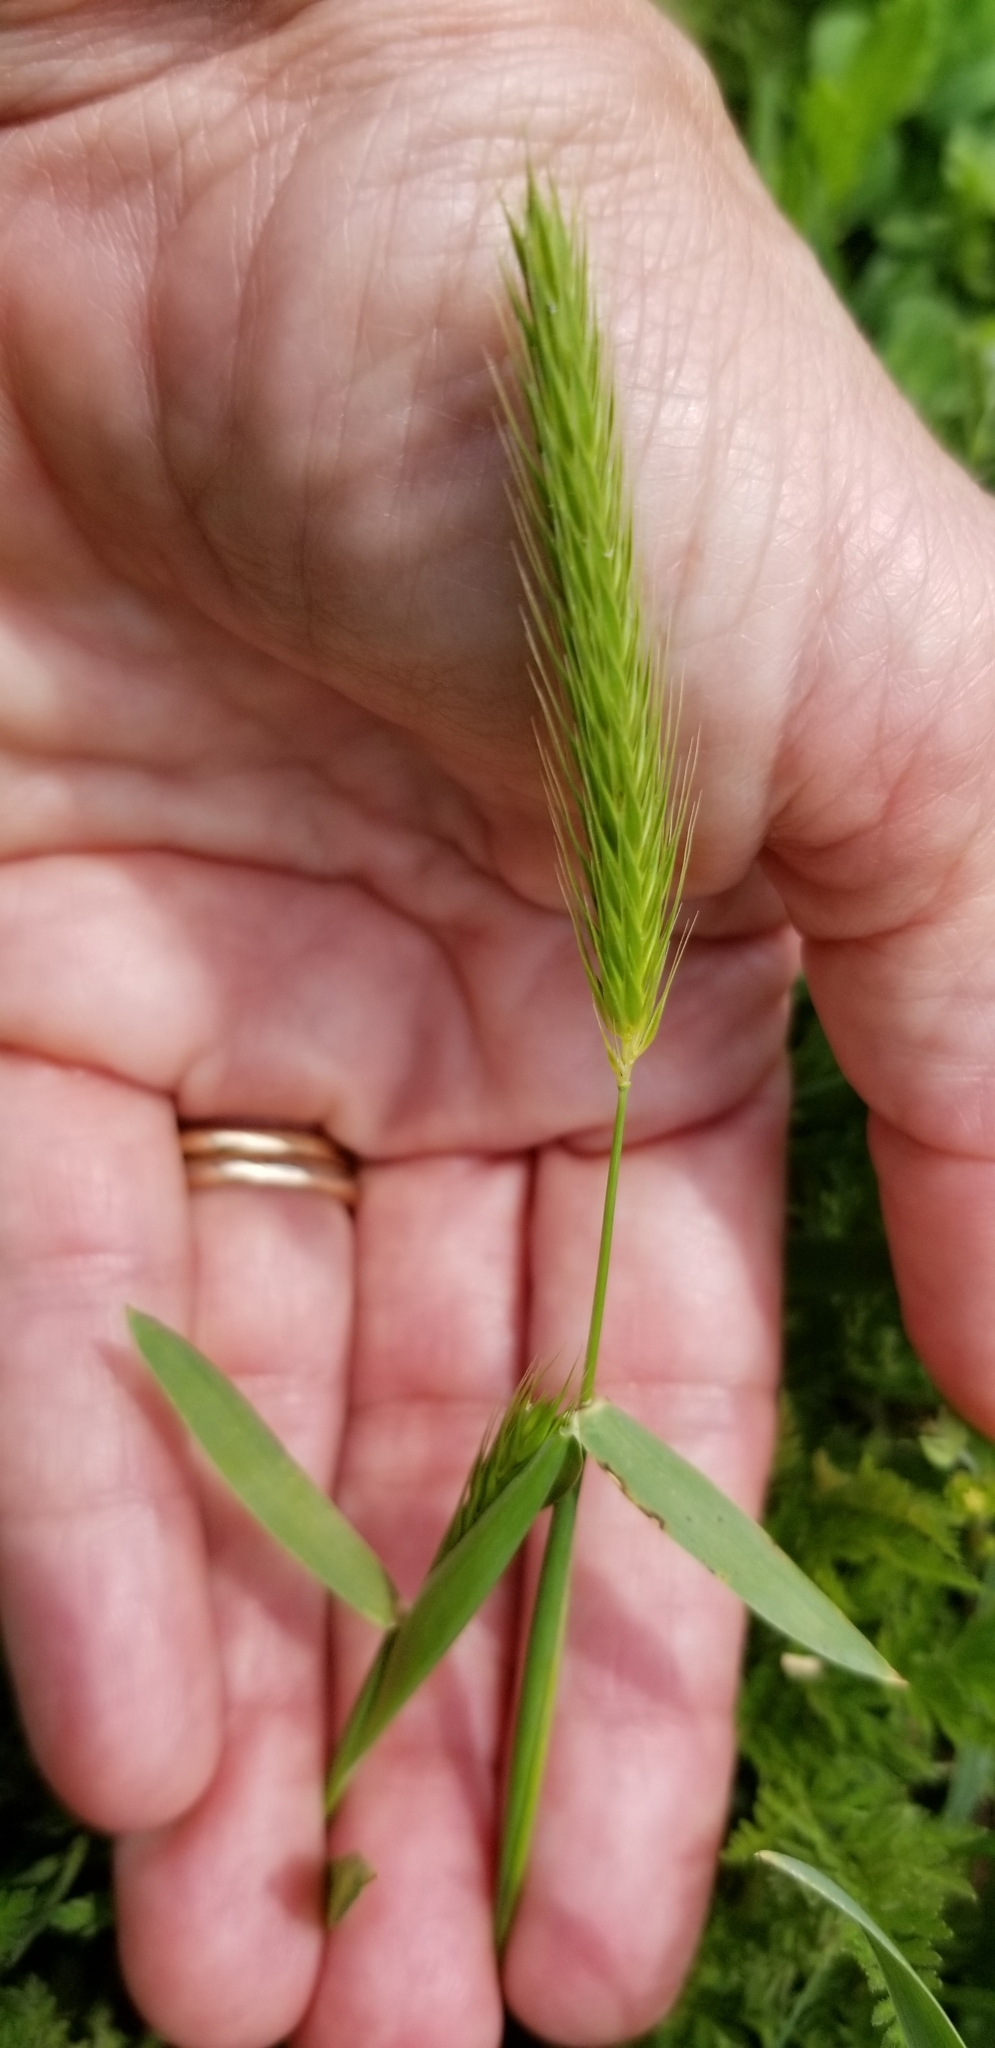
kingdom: Plantae
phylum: Tracheophyta
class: Liliopsida
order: Poales
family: Poaceae
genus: Hordeum
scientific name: Hordeum pusillum
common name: Little barley
